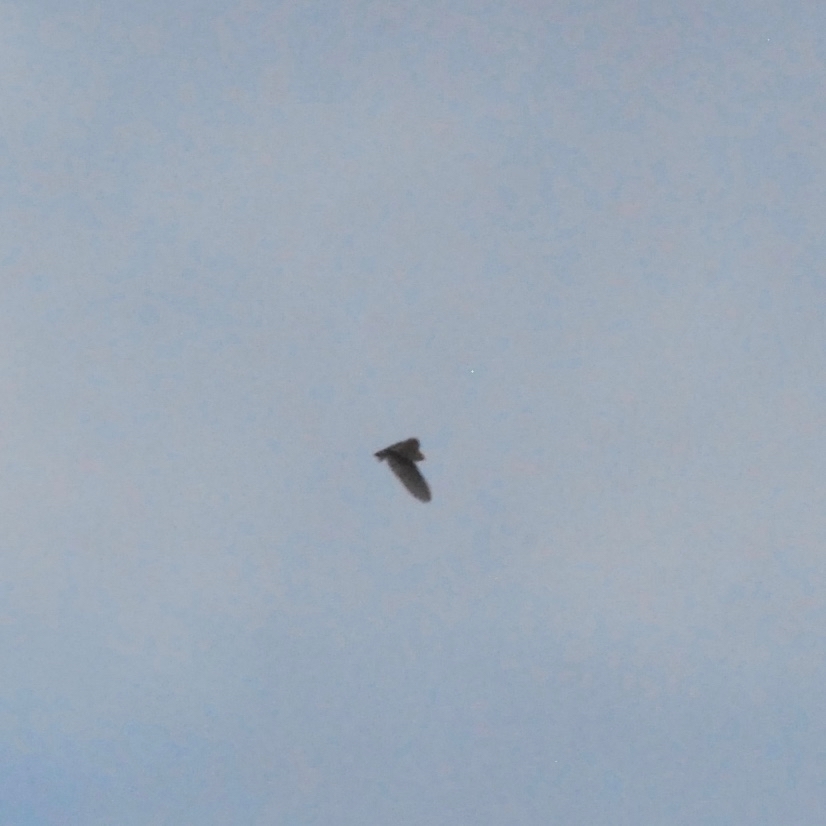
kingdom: Animalia
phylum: Chordata
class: Aves
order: Strigiformes
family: Tytonidae
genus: Tyto
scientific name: Tyto alba
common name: Barn owl
